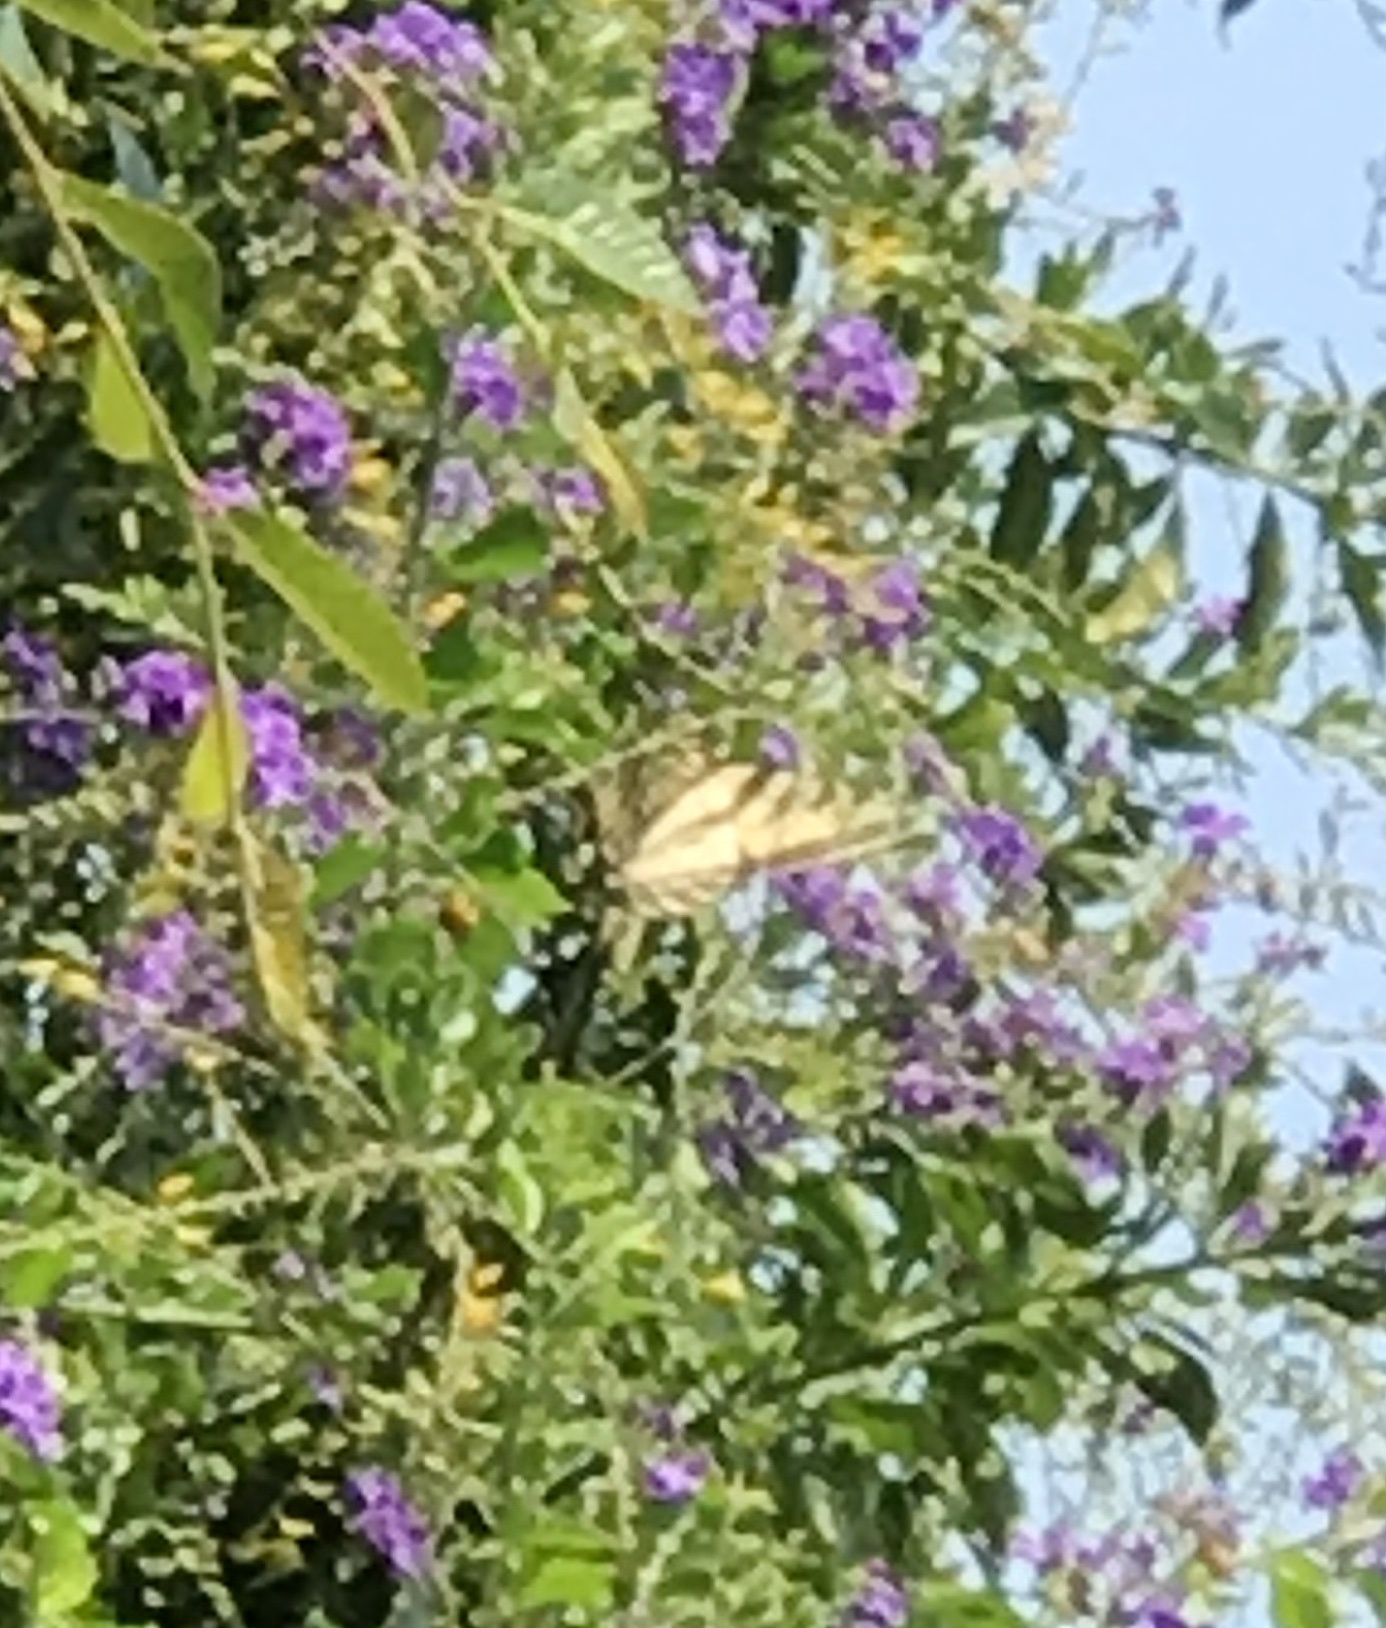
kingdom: Animalia
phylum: Arthropoda
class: Insecta
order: Lepidoptera
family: Papilionidae
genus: Papilio
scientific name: Papilio rutulus
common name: Western tiger swallowtail
